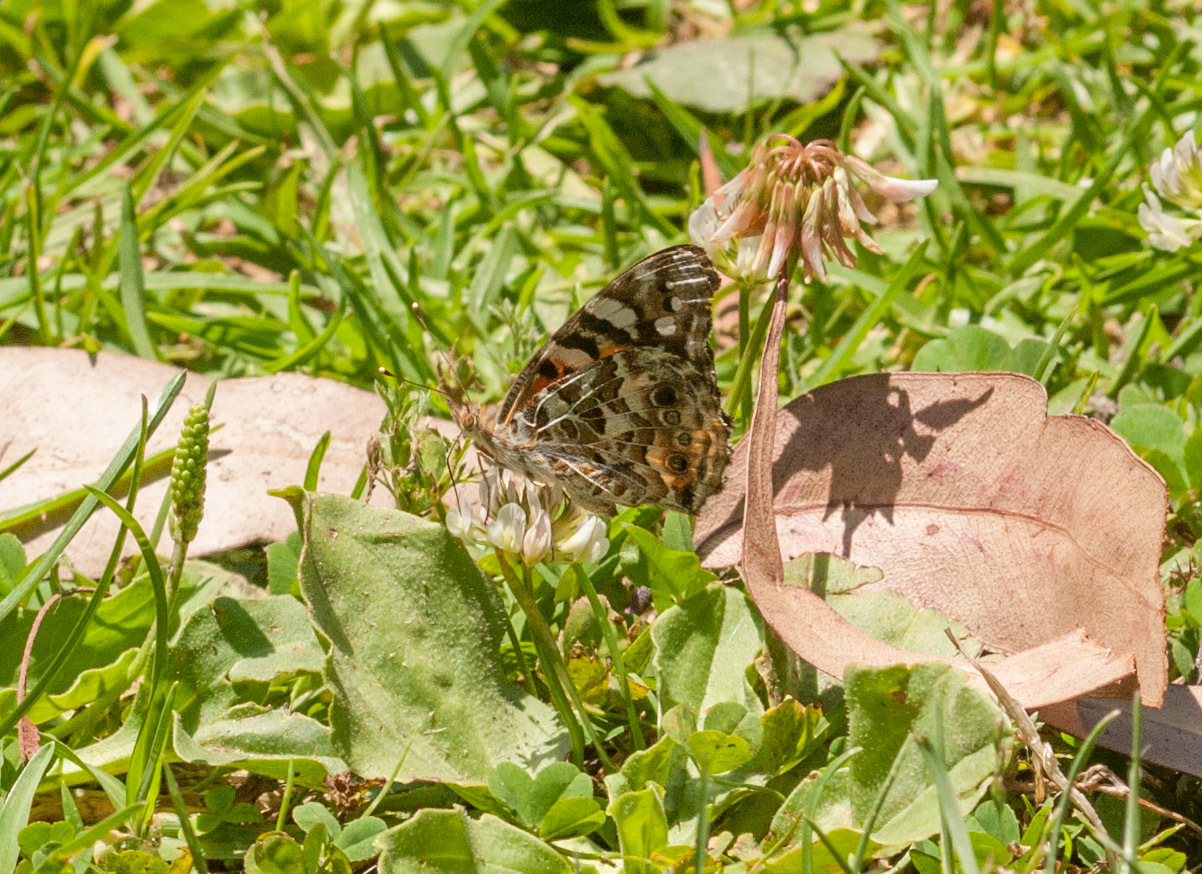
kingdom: Animalia
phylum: Arthropoda
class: Insecta
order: Lepidoptera
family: Nymphalidae
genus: Vanessa
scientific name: Vanessa kershawi
